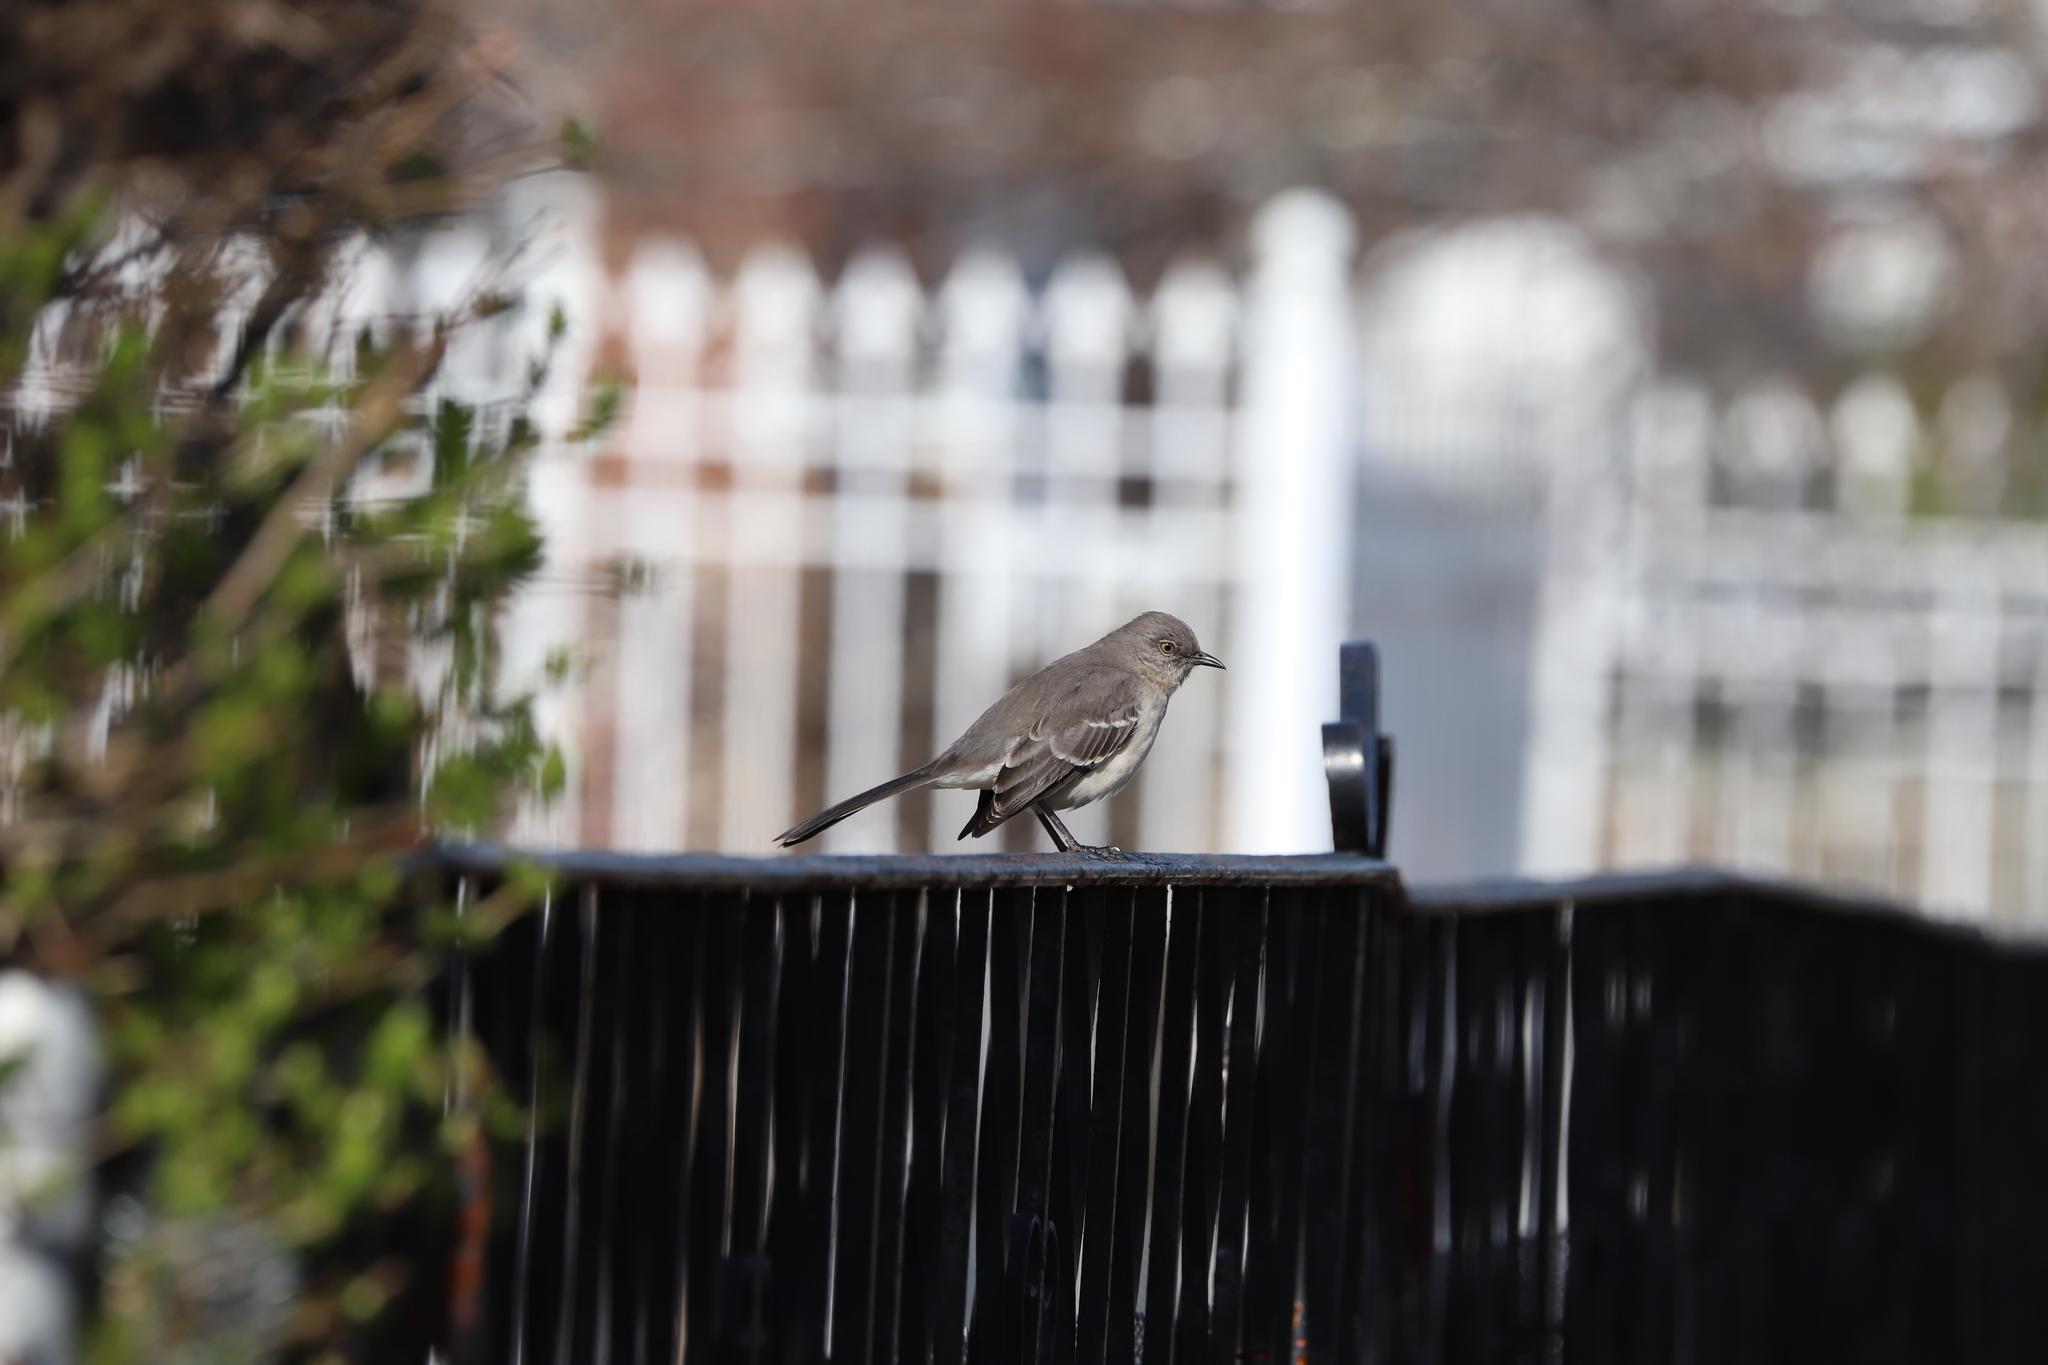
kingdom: Animalia
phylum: Chordata
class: Aves
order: Passeriformes
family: Mimidae
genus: Mimus
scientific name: Mimus polyglottos
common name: Northern mockingbird
